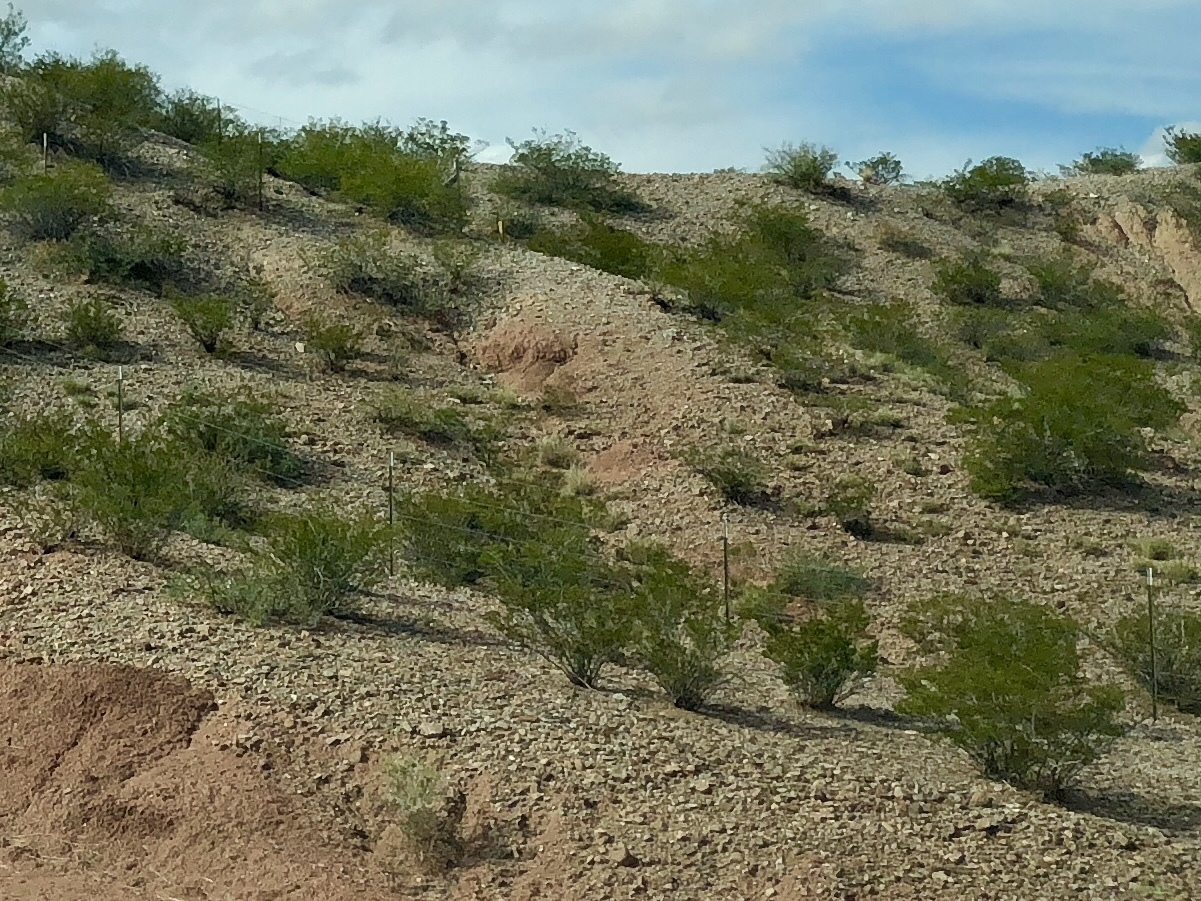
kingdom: Plantae
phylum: Tracheophyta
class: Magnoliopsida
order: Zygophyllales
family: Zygophyllaceae
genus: Larrea
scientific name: Larrea tridentata
